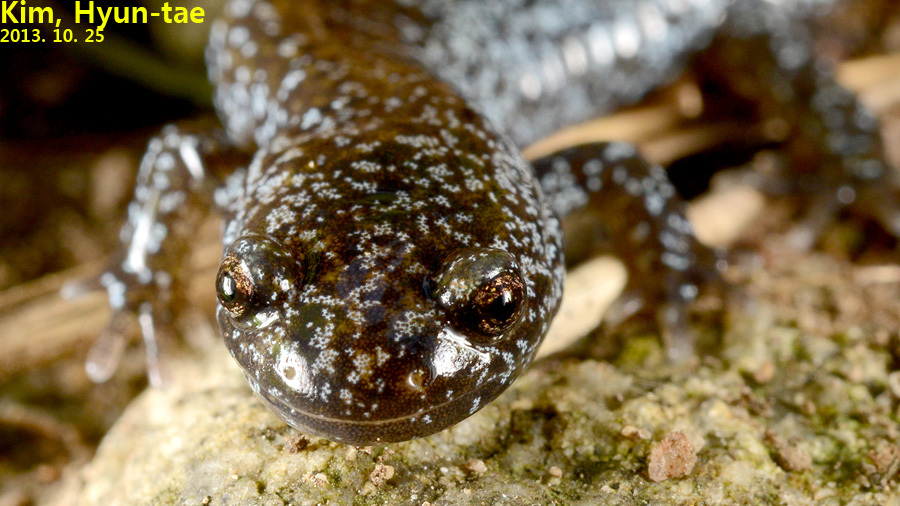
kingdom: Animalia
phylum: Chordata
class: Amphibia
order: Caudata
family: Hynobiidae
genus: Hynobius
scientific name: Hynobius leechii
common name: Gensan salamander
